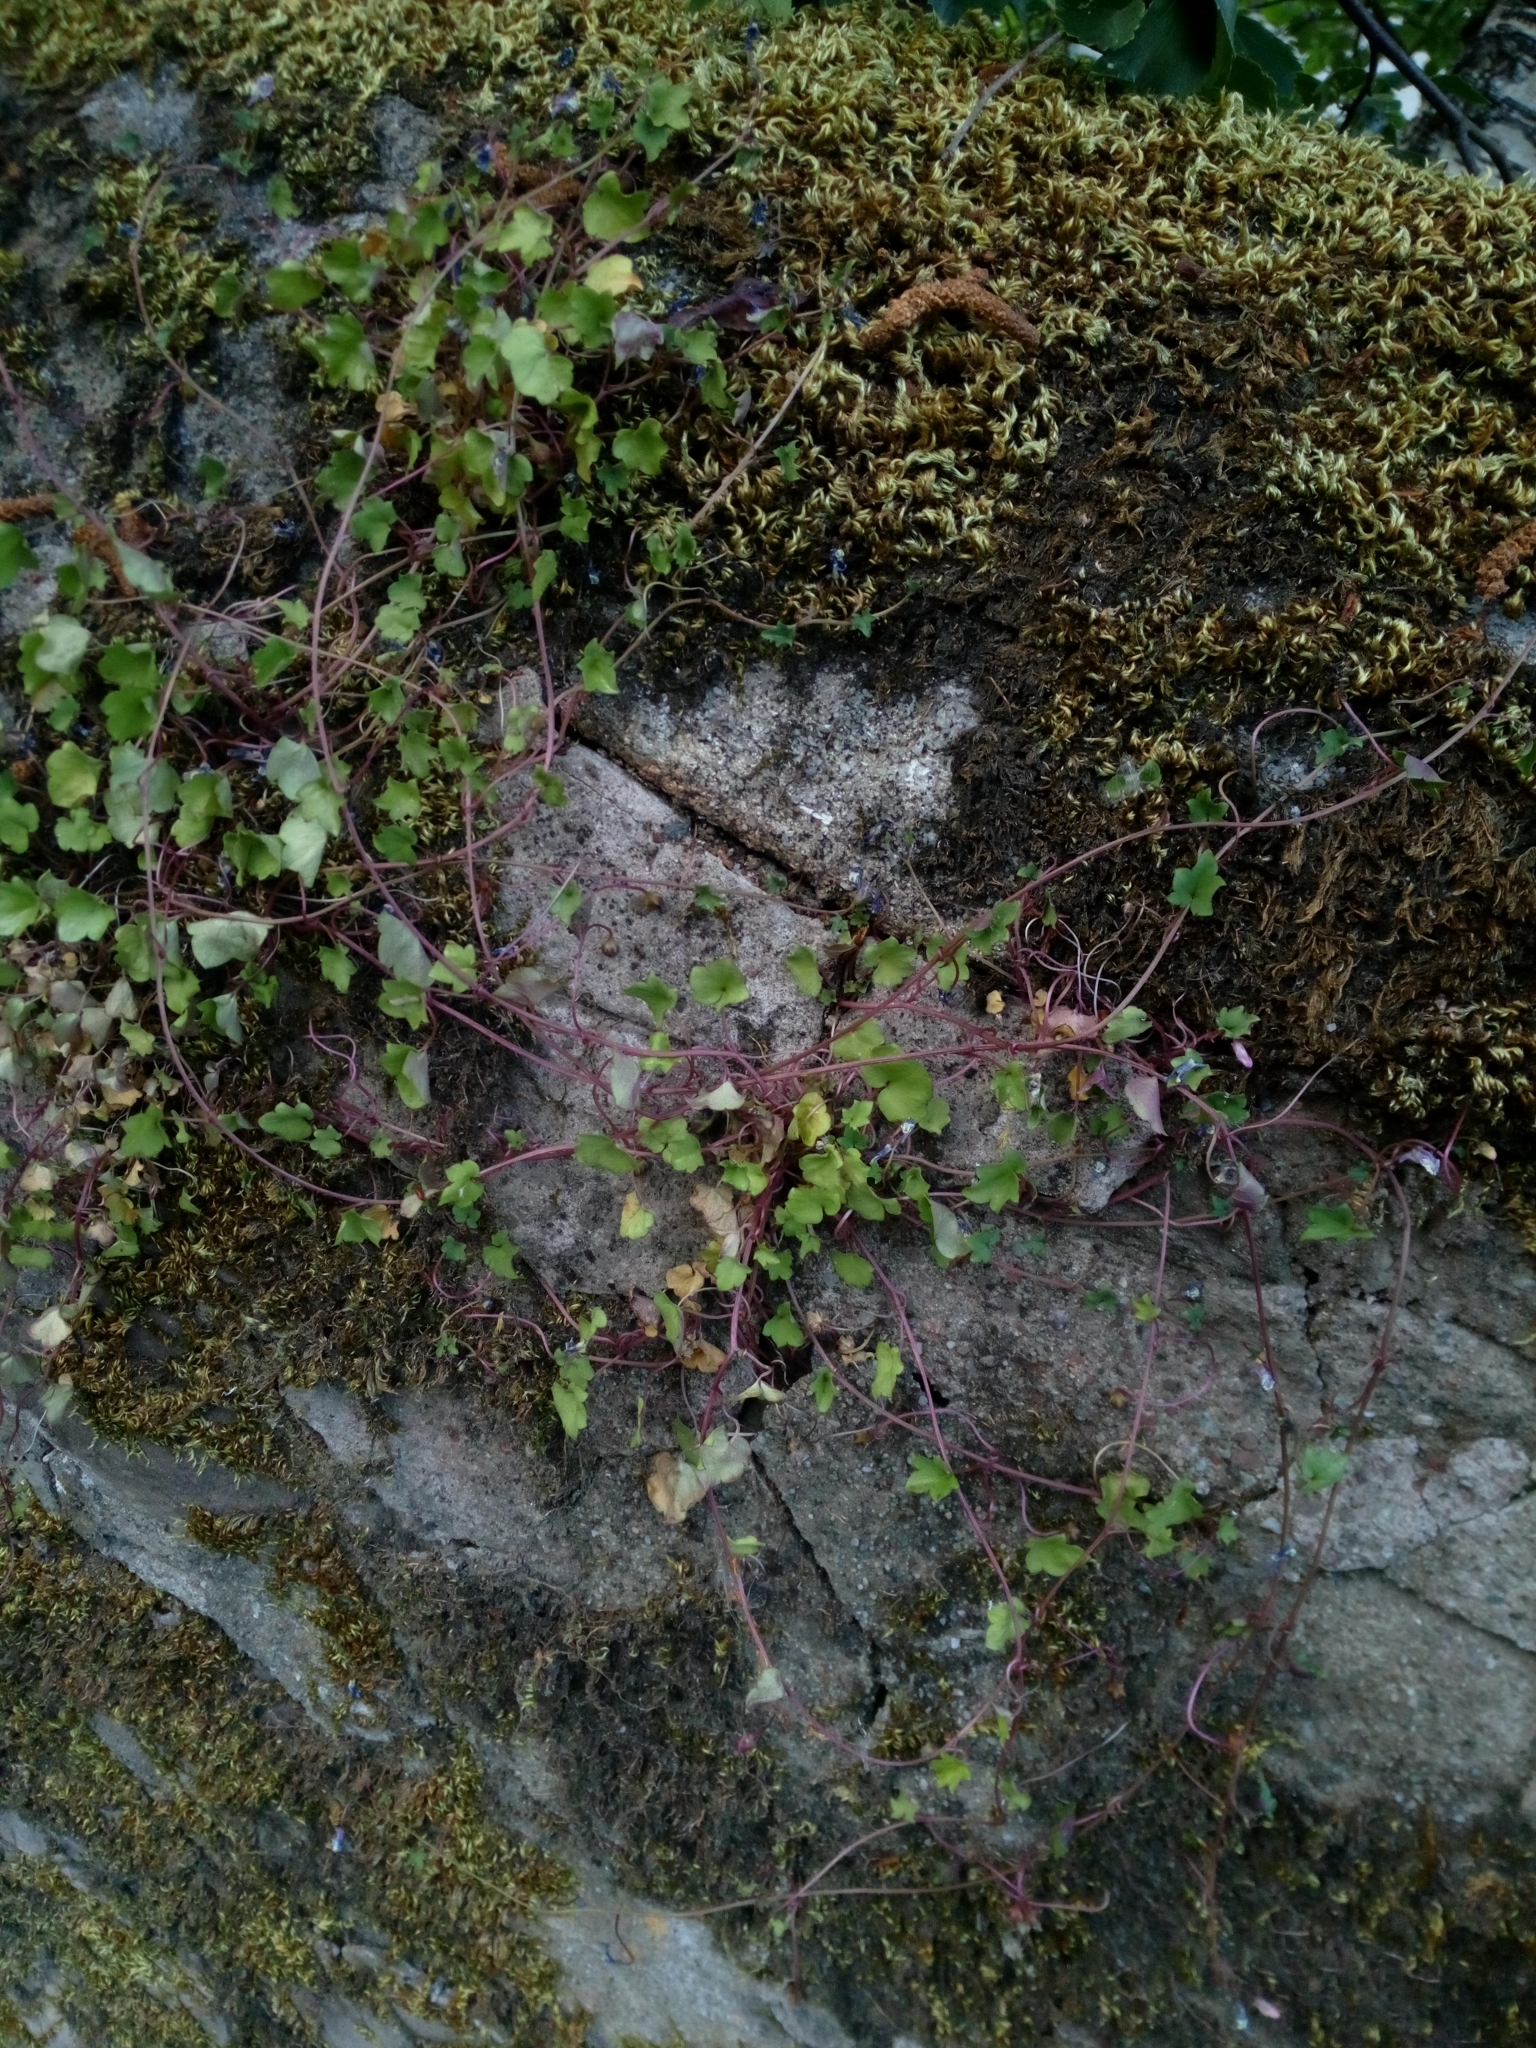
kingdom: Plantae
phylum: Tracheophyta
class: Magnoliopsida
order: Lamiales
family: Plantaginaceae
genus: Cymbalaria
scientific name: Cymbalaria muralis
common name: Ivy-leaved toadflax
